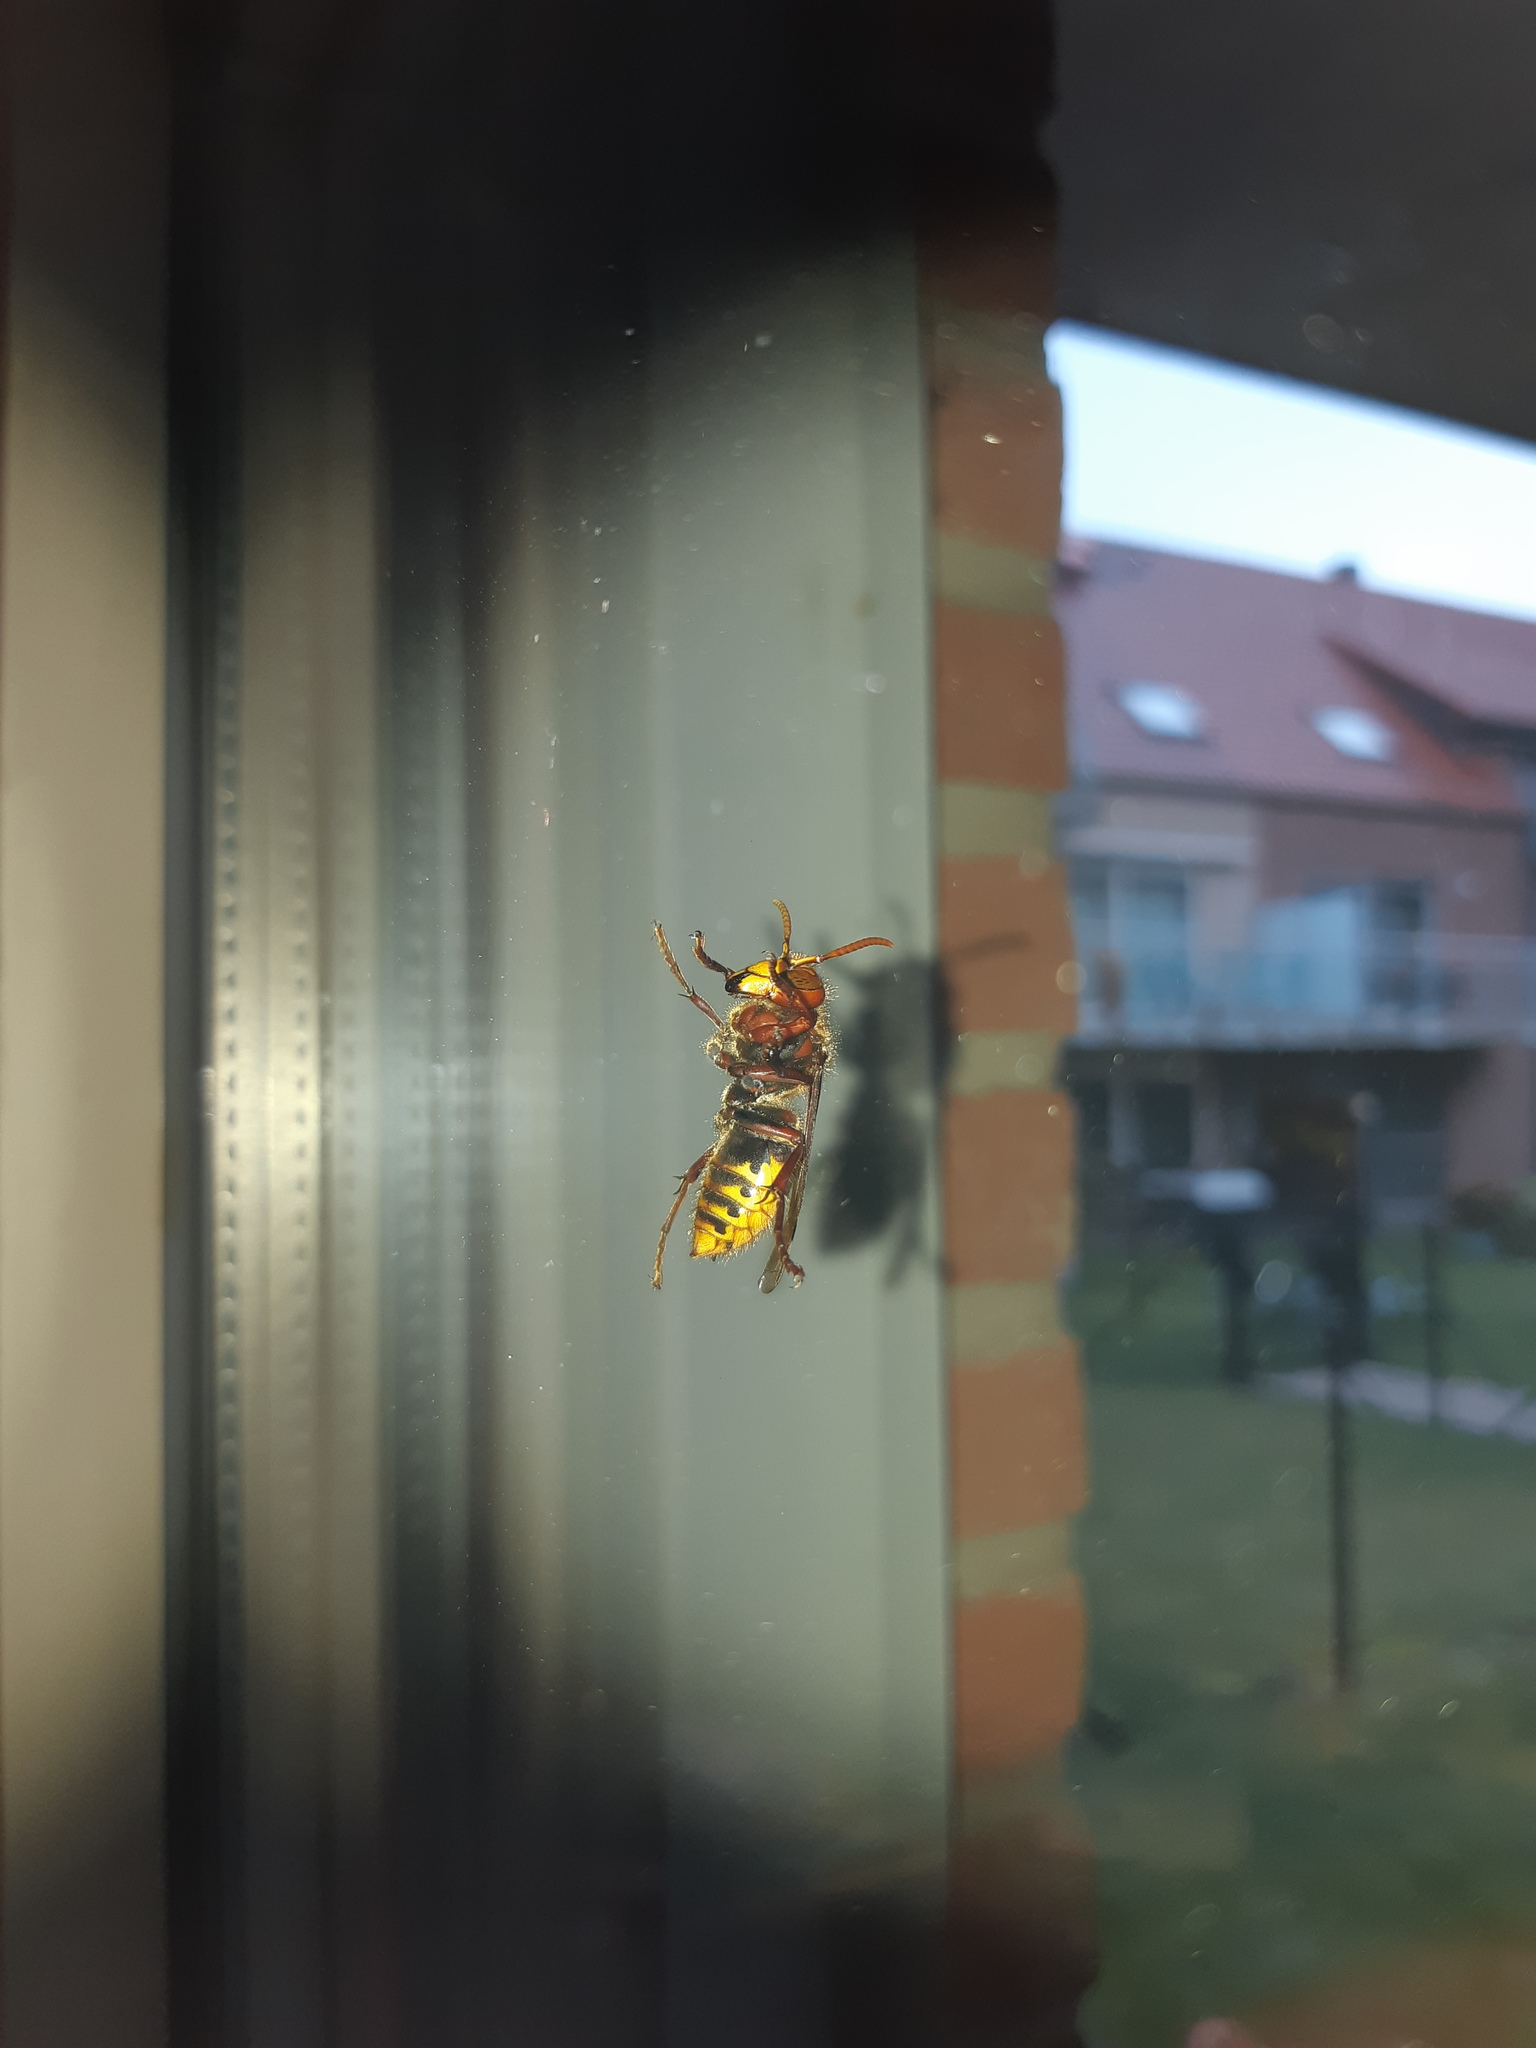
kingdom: Animalia
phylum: Arthropoda
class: Insecta
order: Hymenoptera
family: Vespidae
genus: Vespa
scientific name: Vespa crabro
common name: Hornet
